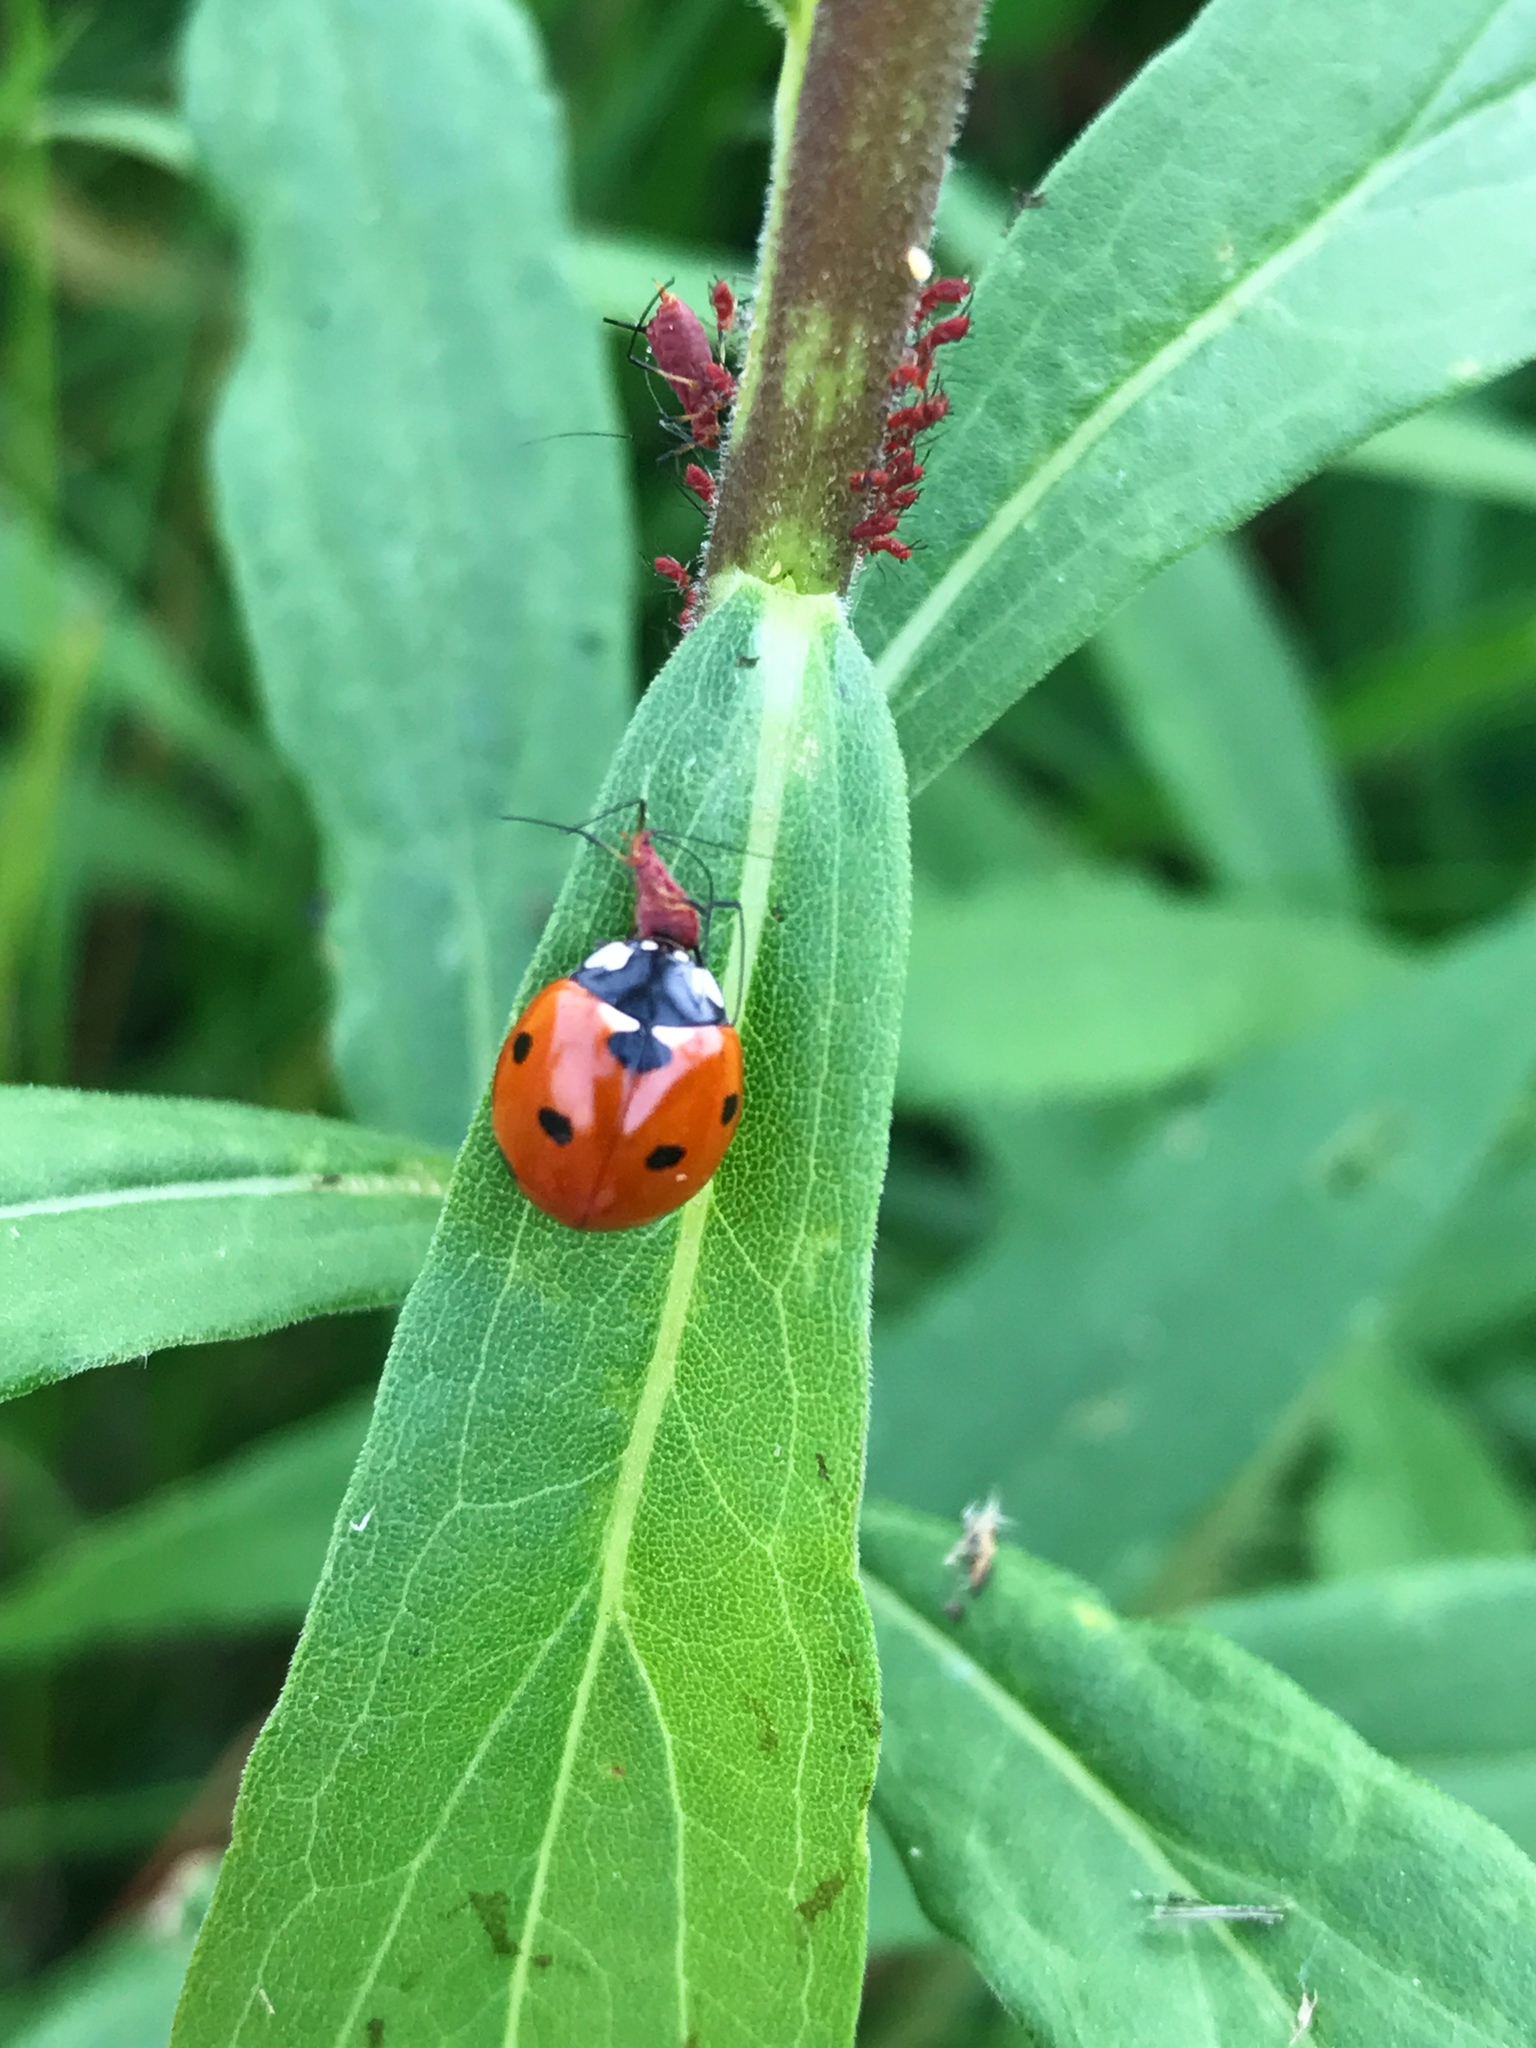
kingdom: Animalia
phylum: Arthropoda
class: Insecta
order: Coleoptera
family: Coccinellidae
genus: Coccinella
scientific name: Coccinella septempunctata
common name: Sevenspotted lady beetle
